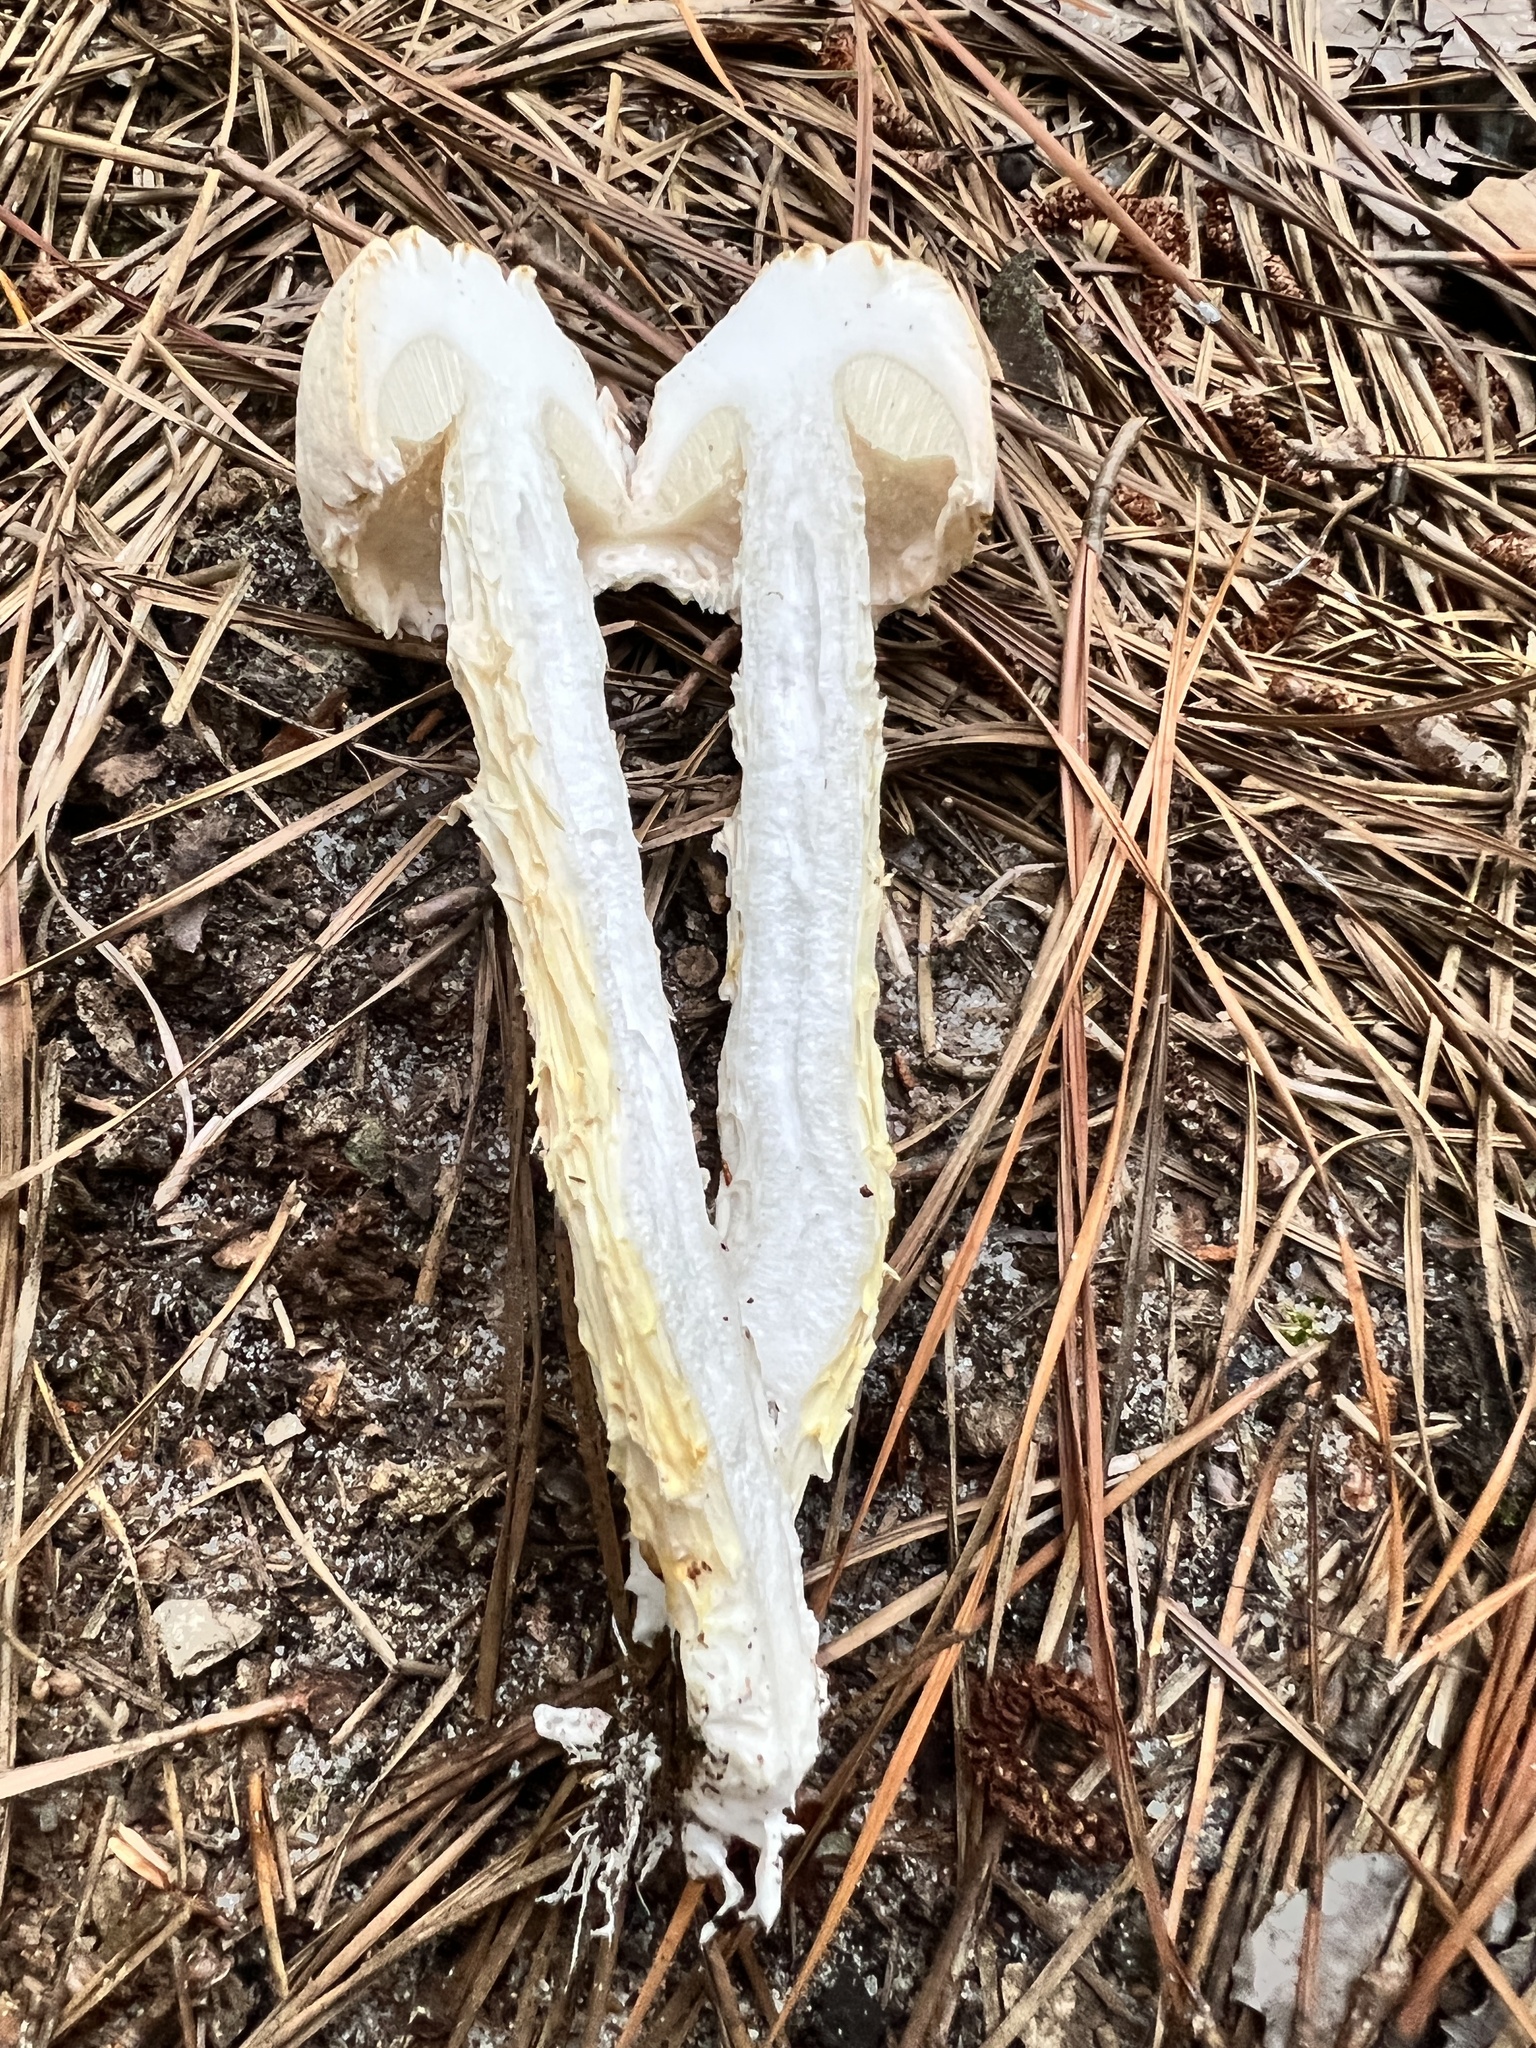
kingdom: Fungi
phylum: Basidiomycota
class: Agaricomycetes
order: Boletales
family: Boletaceae
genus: Austroboletus
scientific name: Austroboletus subflavidus
